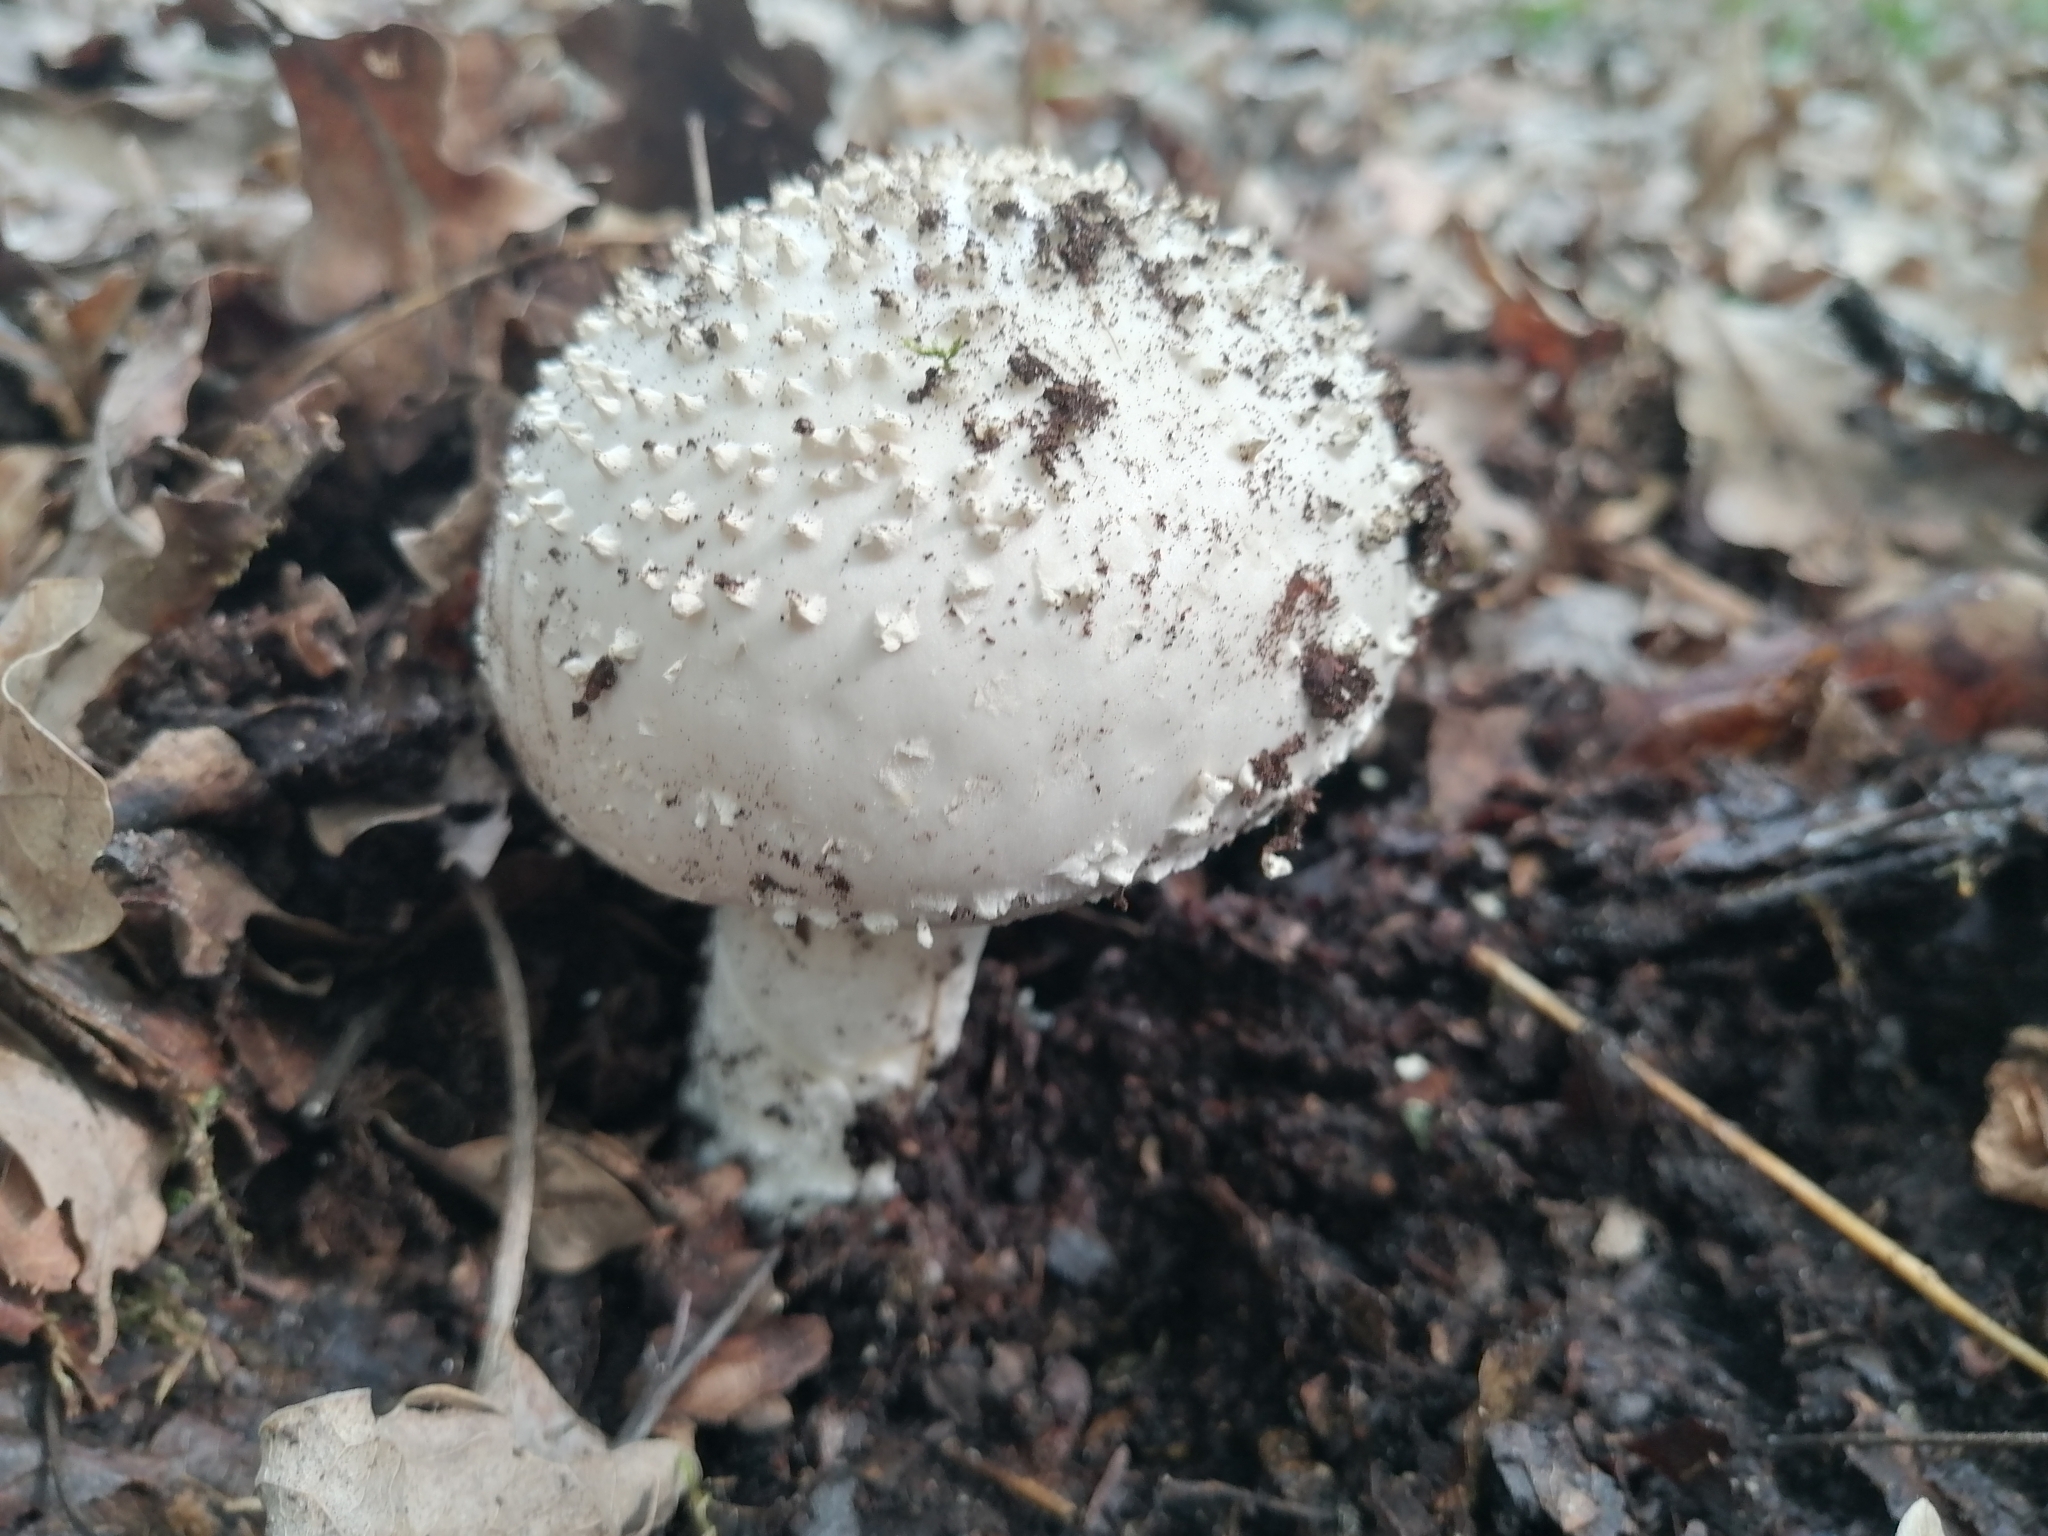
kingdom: Fungi
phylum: Basidiomycota
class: Agaricomycetes
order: Agaricales
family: Amanitaceae
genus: Amanita
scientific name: Amanita echinocephala
